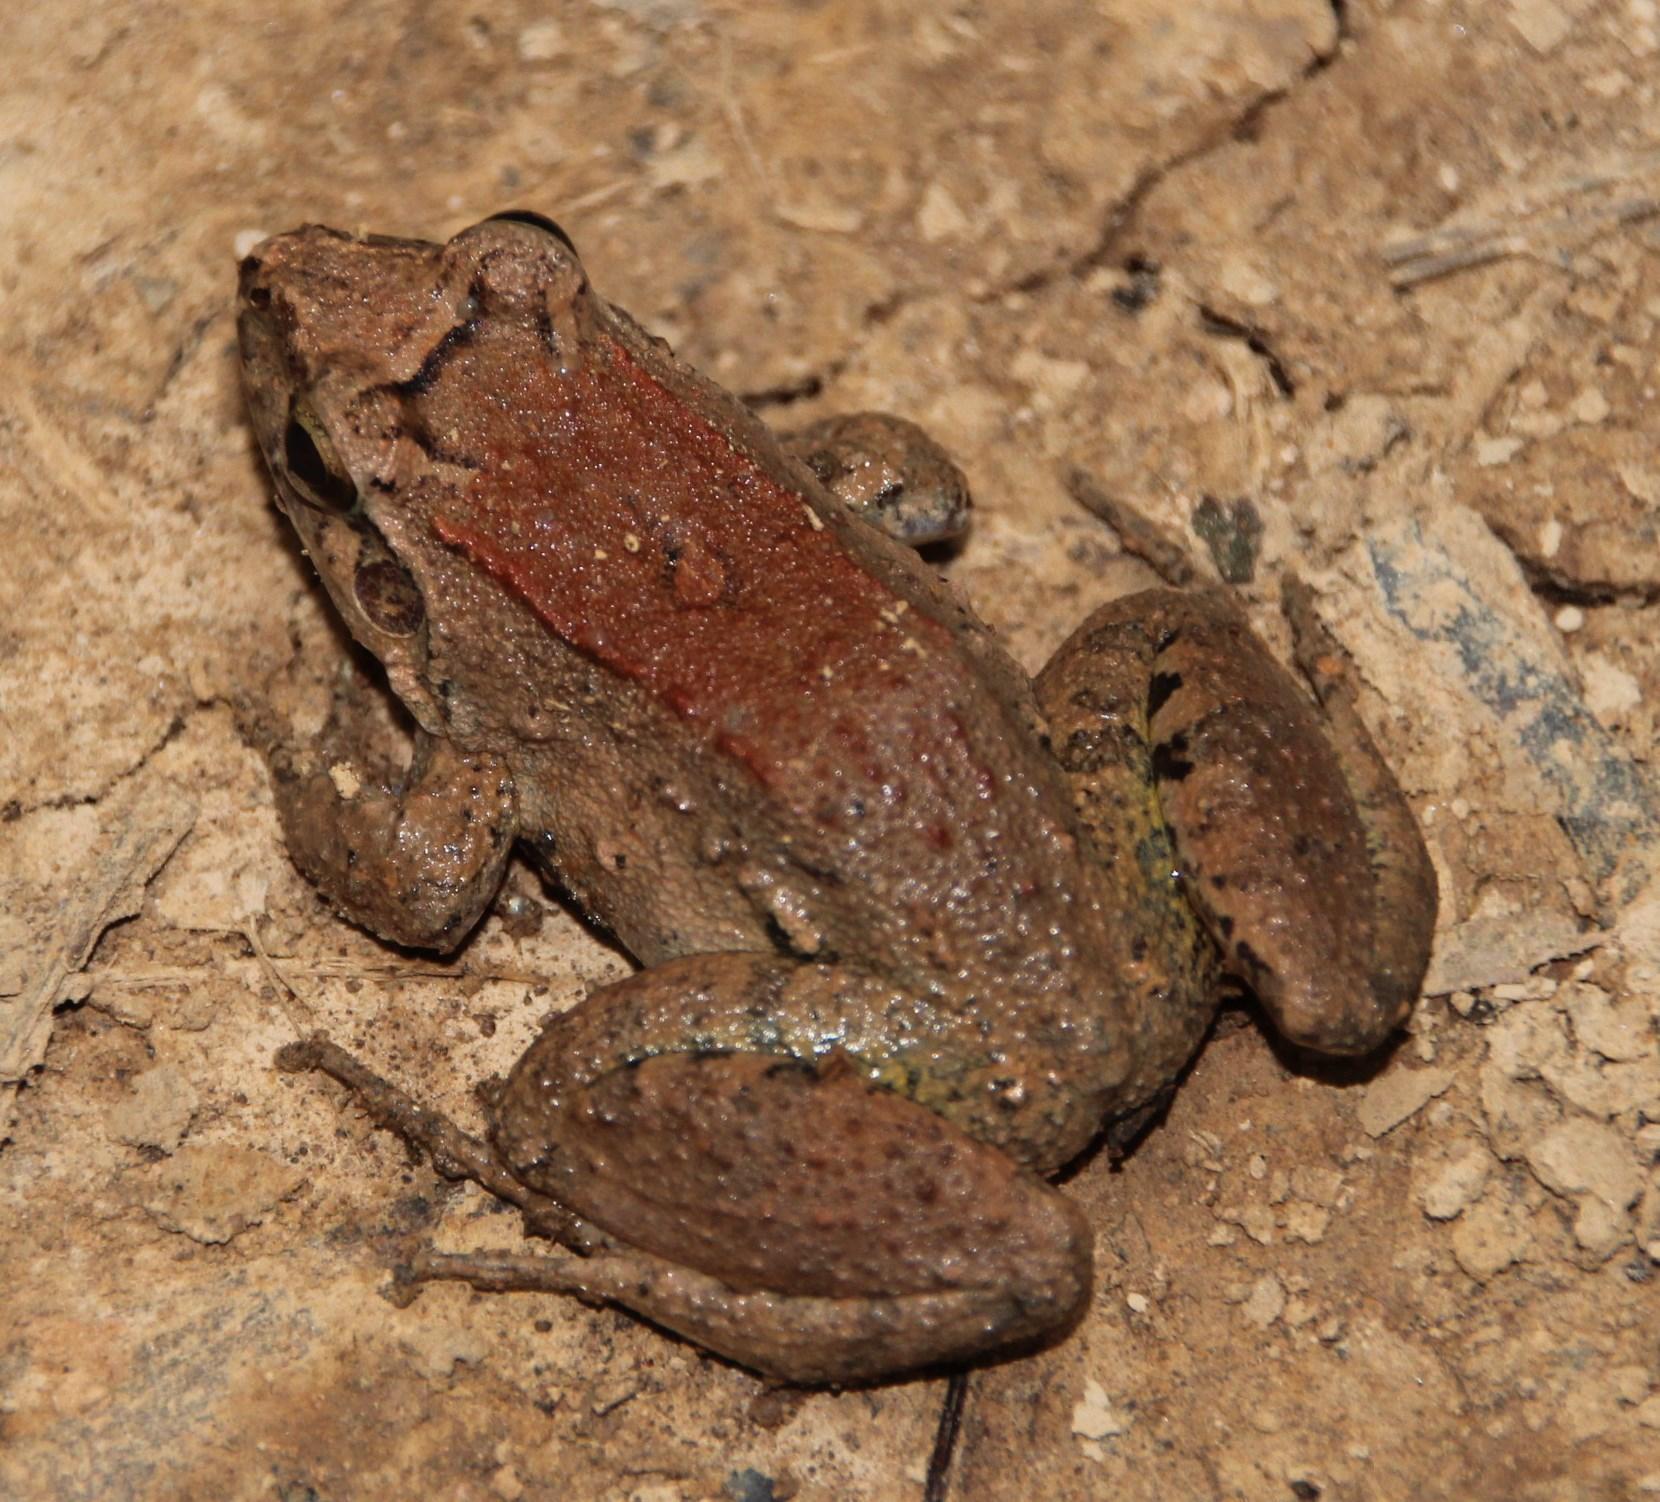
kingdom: Animalia
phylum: Chordata
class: Amphibia
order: Anura
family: Leptodactylidae
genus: Leptodactylus
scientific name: Leptodactylus leptodactyloides
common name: Common thin-toed frog
